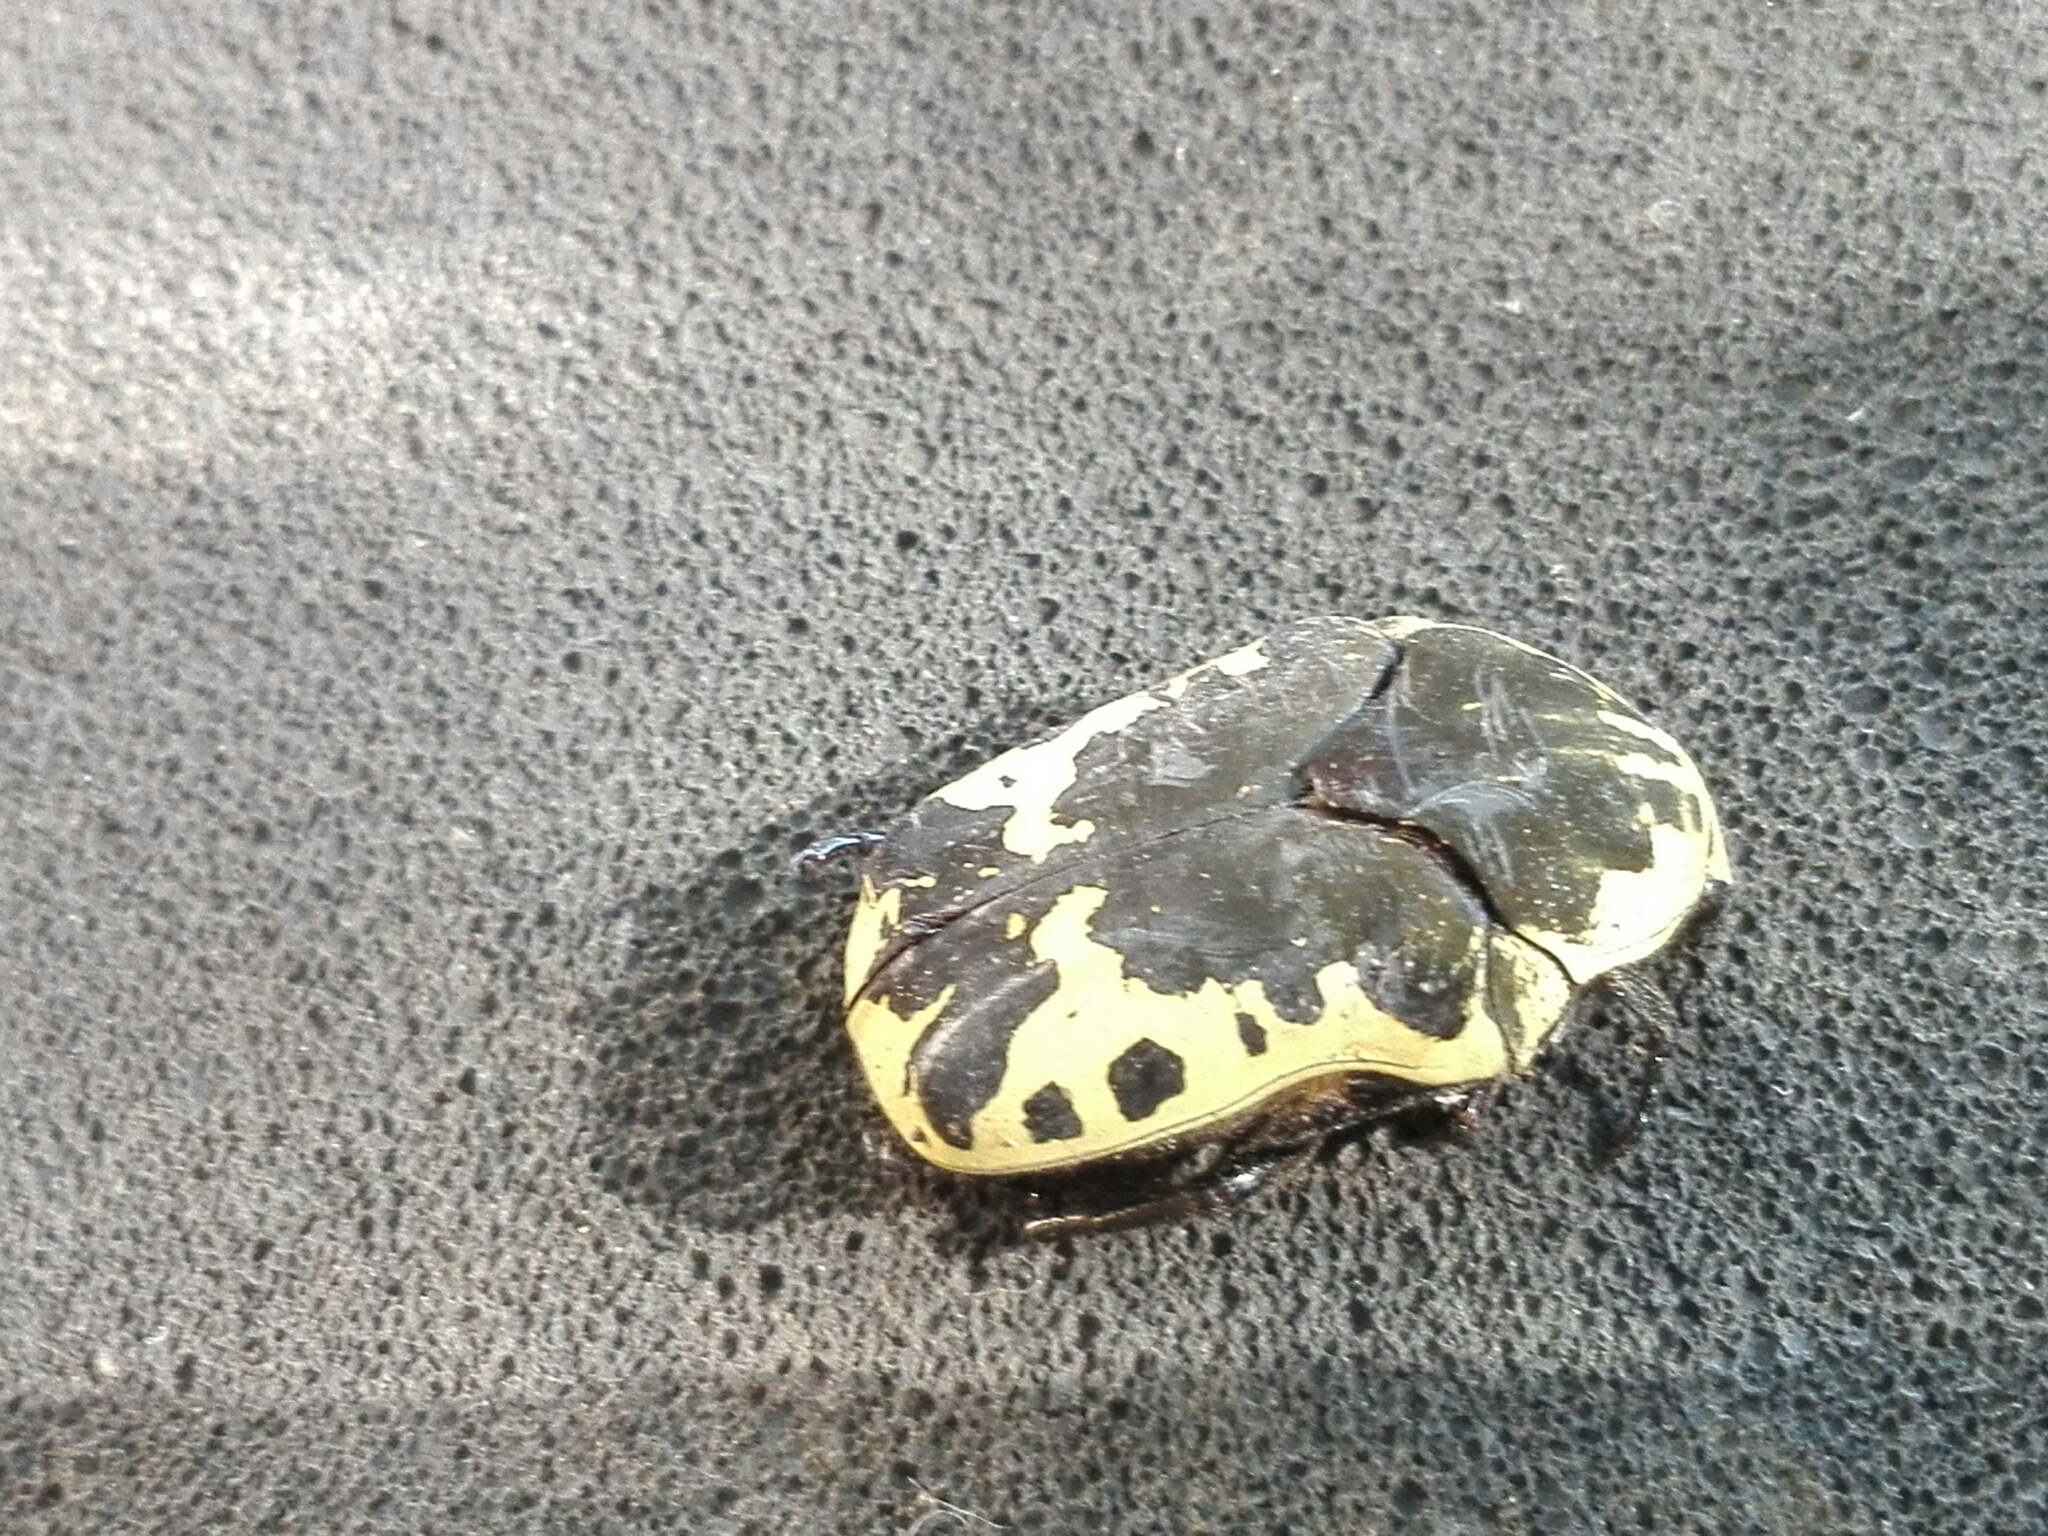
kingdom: Animalia
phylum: Arthropoda
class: Insecta
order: Coleoptera
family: Scarabaeidae
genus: Gymnetis
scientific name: Gymnetis thula
